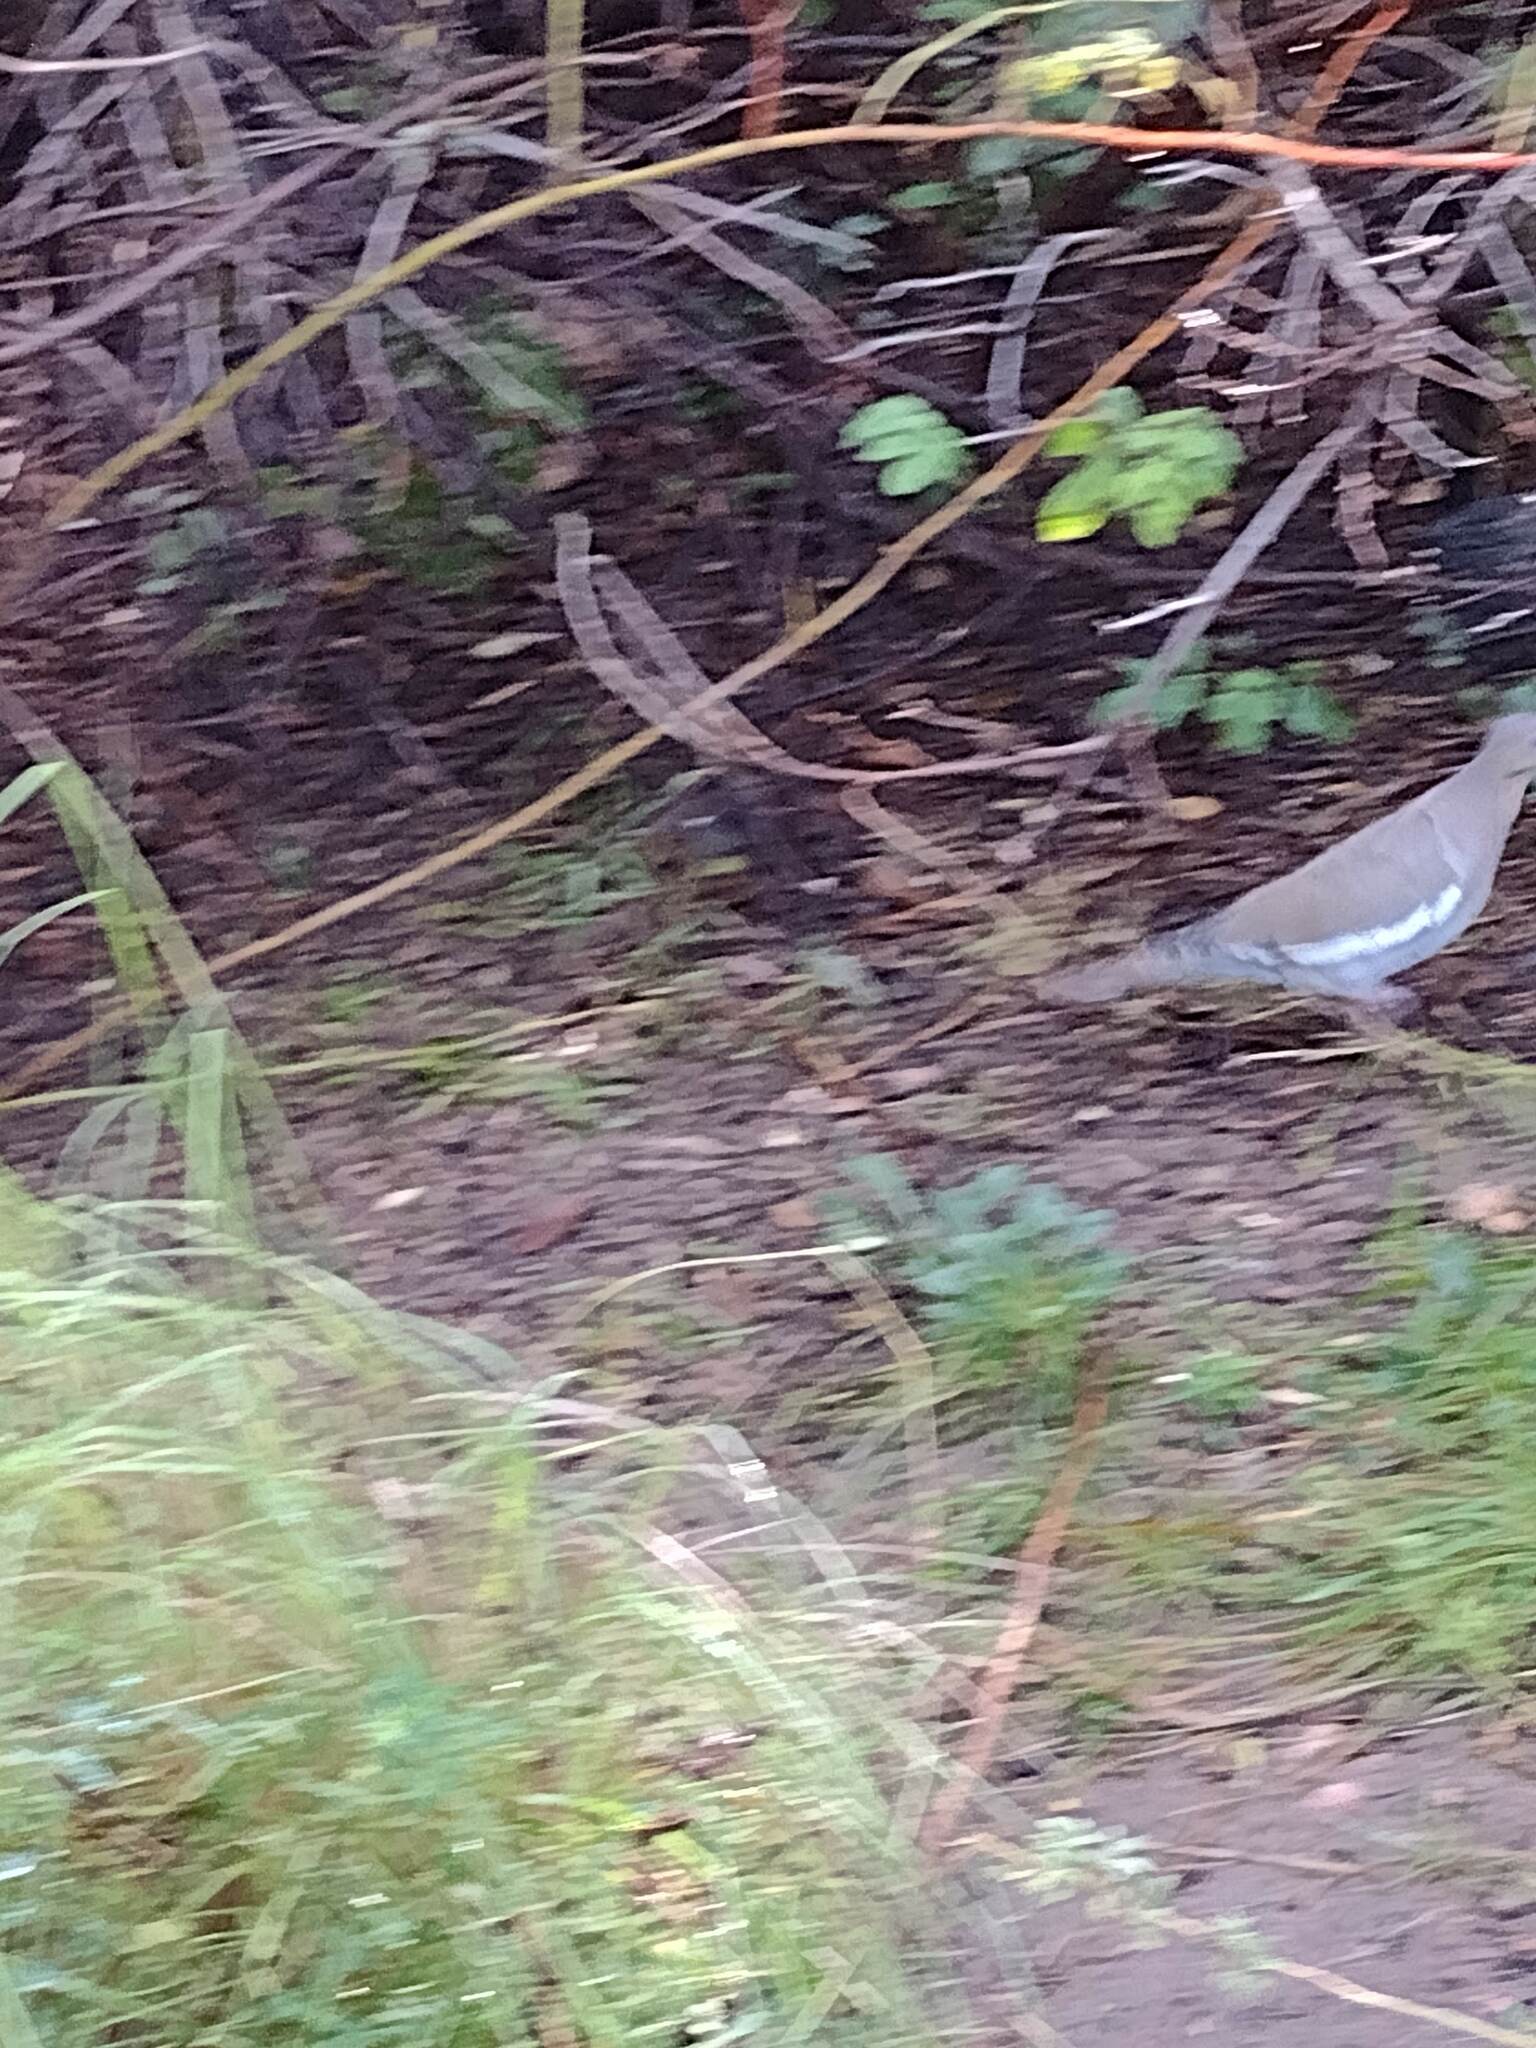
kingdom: Animalia
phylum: Chordata
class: Aves
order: Columbiformes
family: Columbidae
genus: Zenaida
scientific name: Zenaida asiatica
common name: White-winged dove
